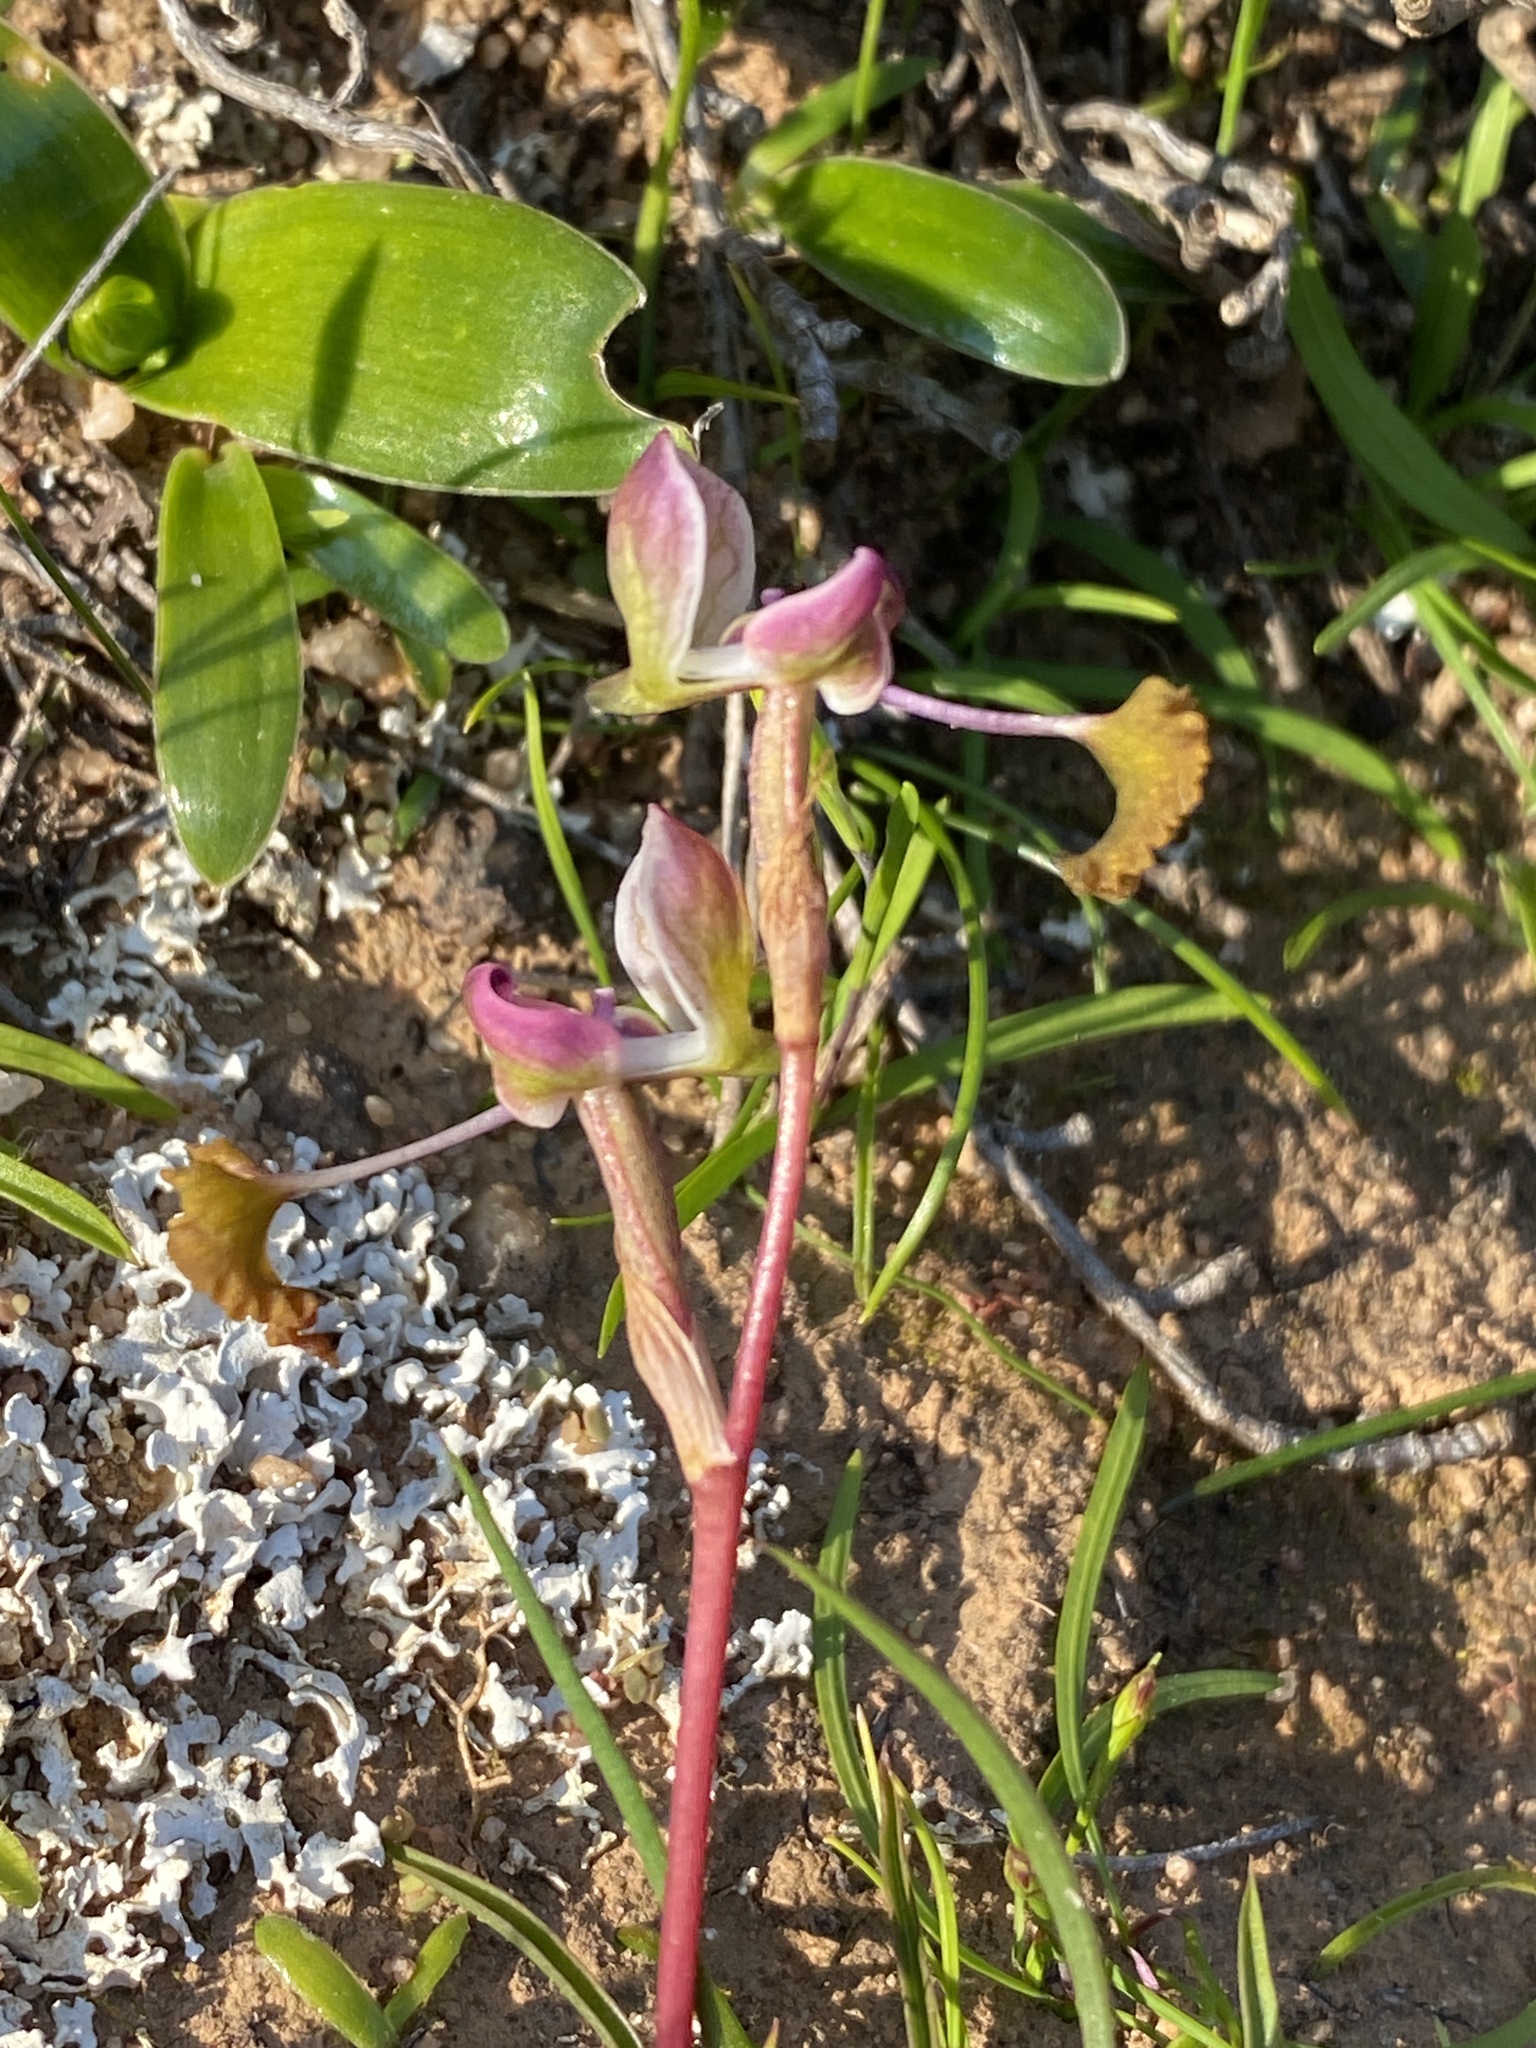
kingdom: Plantae
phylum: Tracheophyta
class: Liliopsida
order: Asparagales
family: Orchidaceae
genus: Disa
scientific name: Disa spathulata
